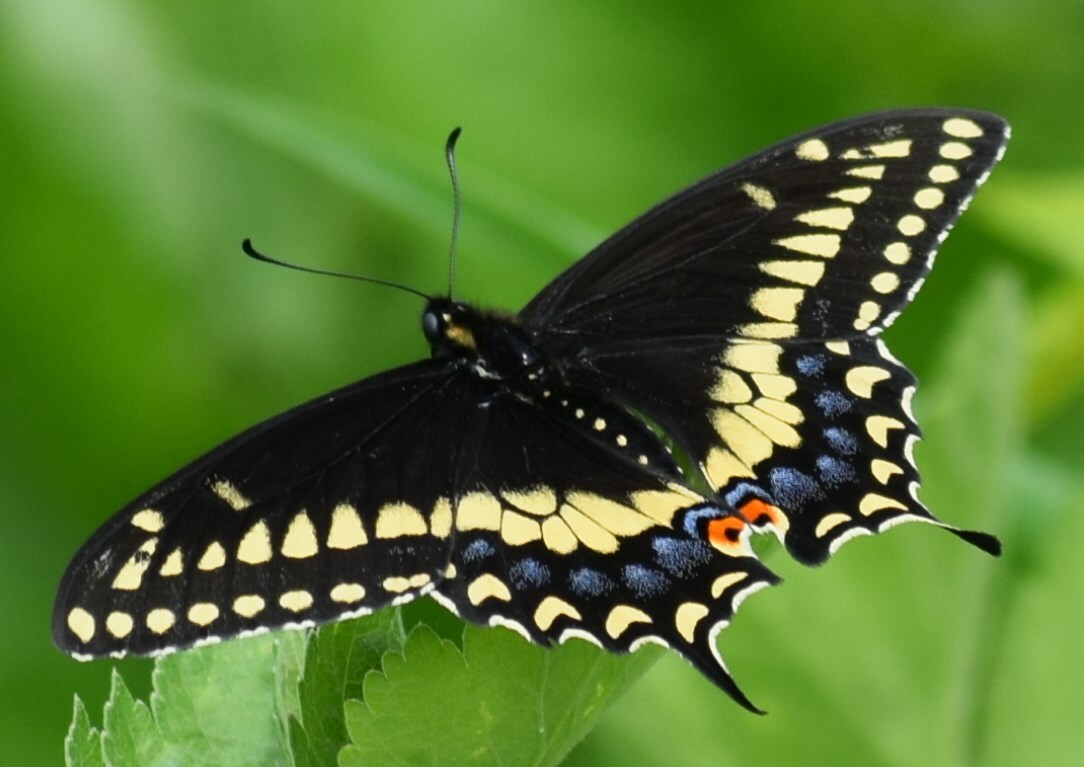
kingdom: Animalia
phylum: Arthropoda
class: Insecta
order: Lepidoptera
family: Papilionidae
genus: Papilio
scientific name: Papilio polyxenes
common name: Black swallowtail
